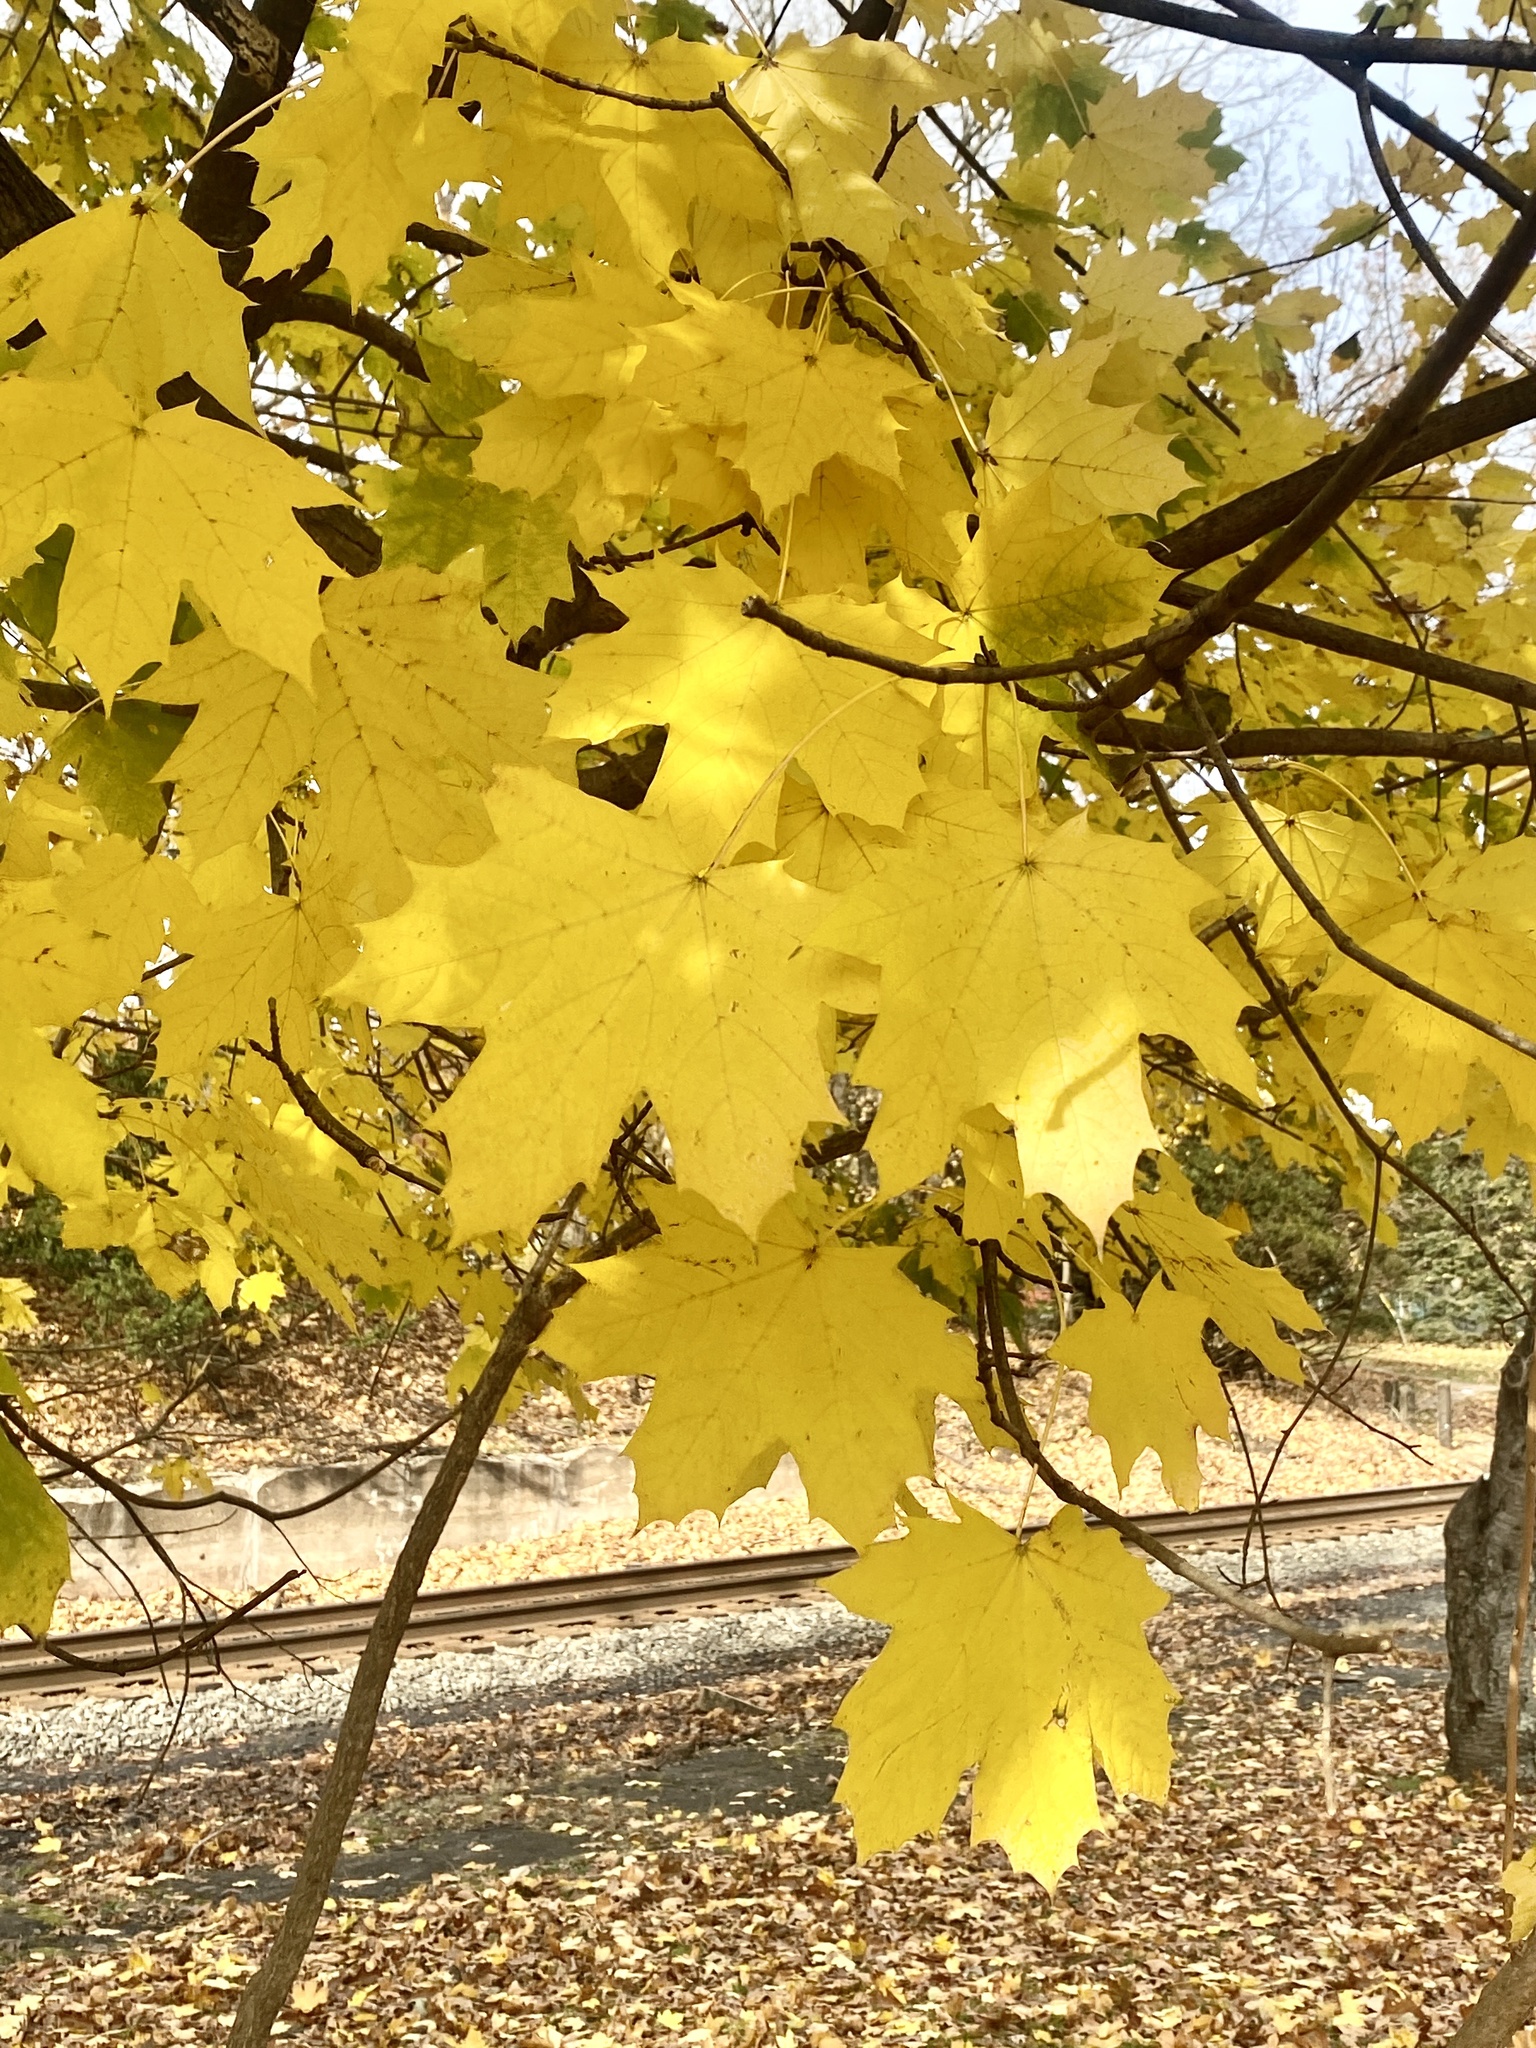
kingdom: Plantae
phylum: Tracheophyta
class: Magnoliopsida
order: Sapindales
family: Sapindaceae
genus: Acer
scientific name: Acer platanoides
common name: Norway maple
